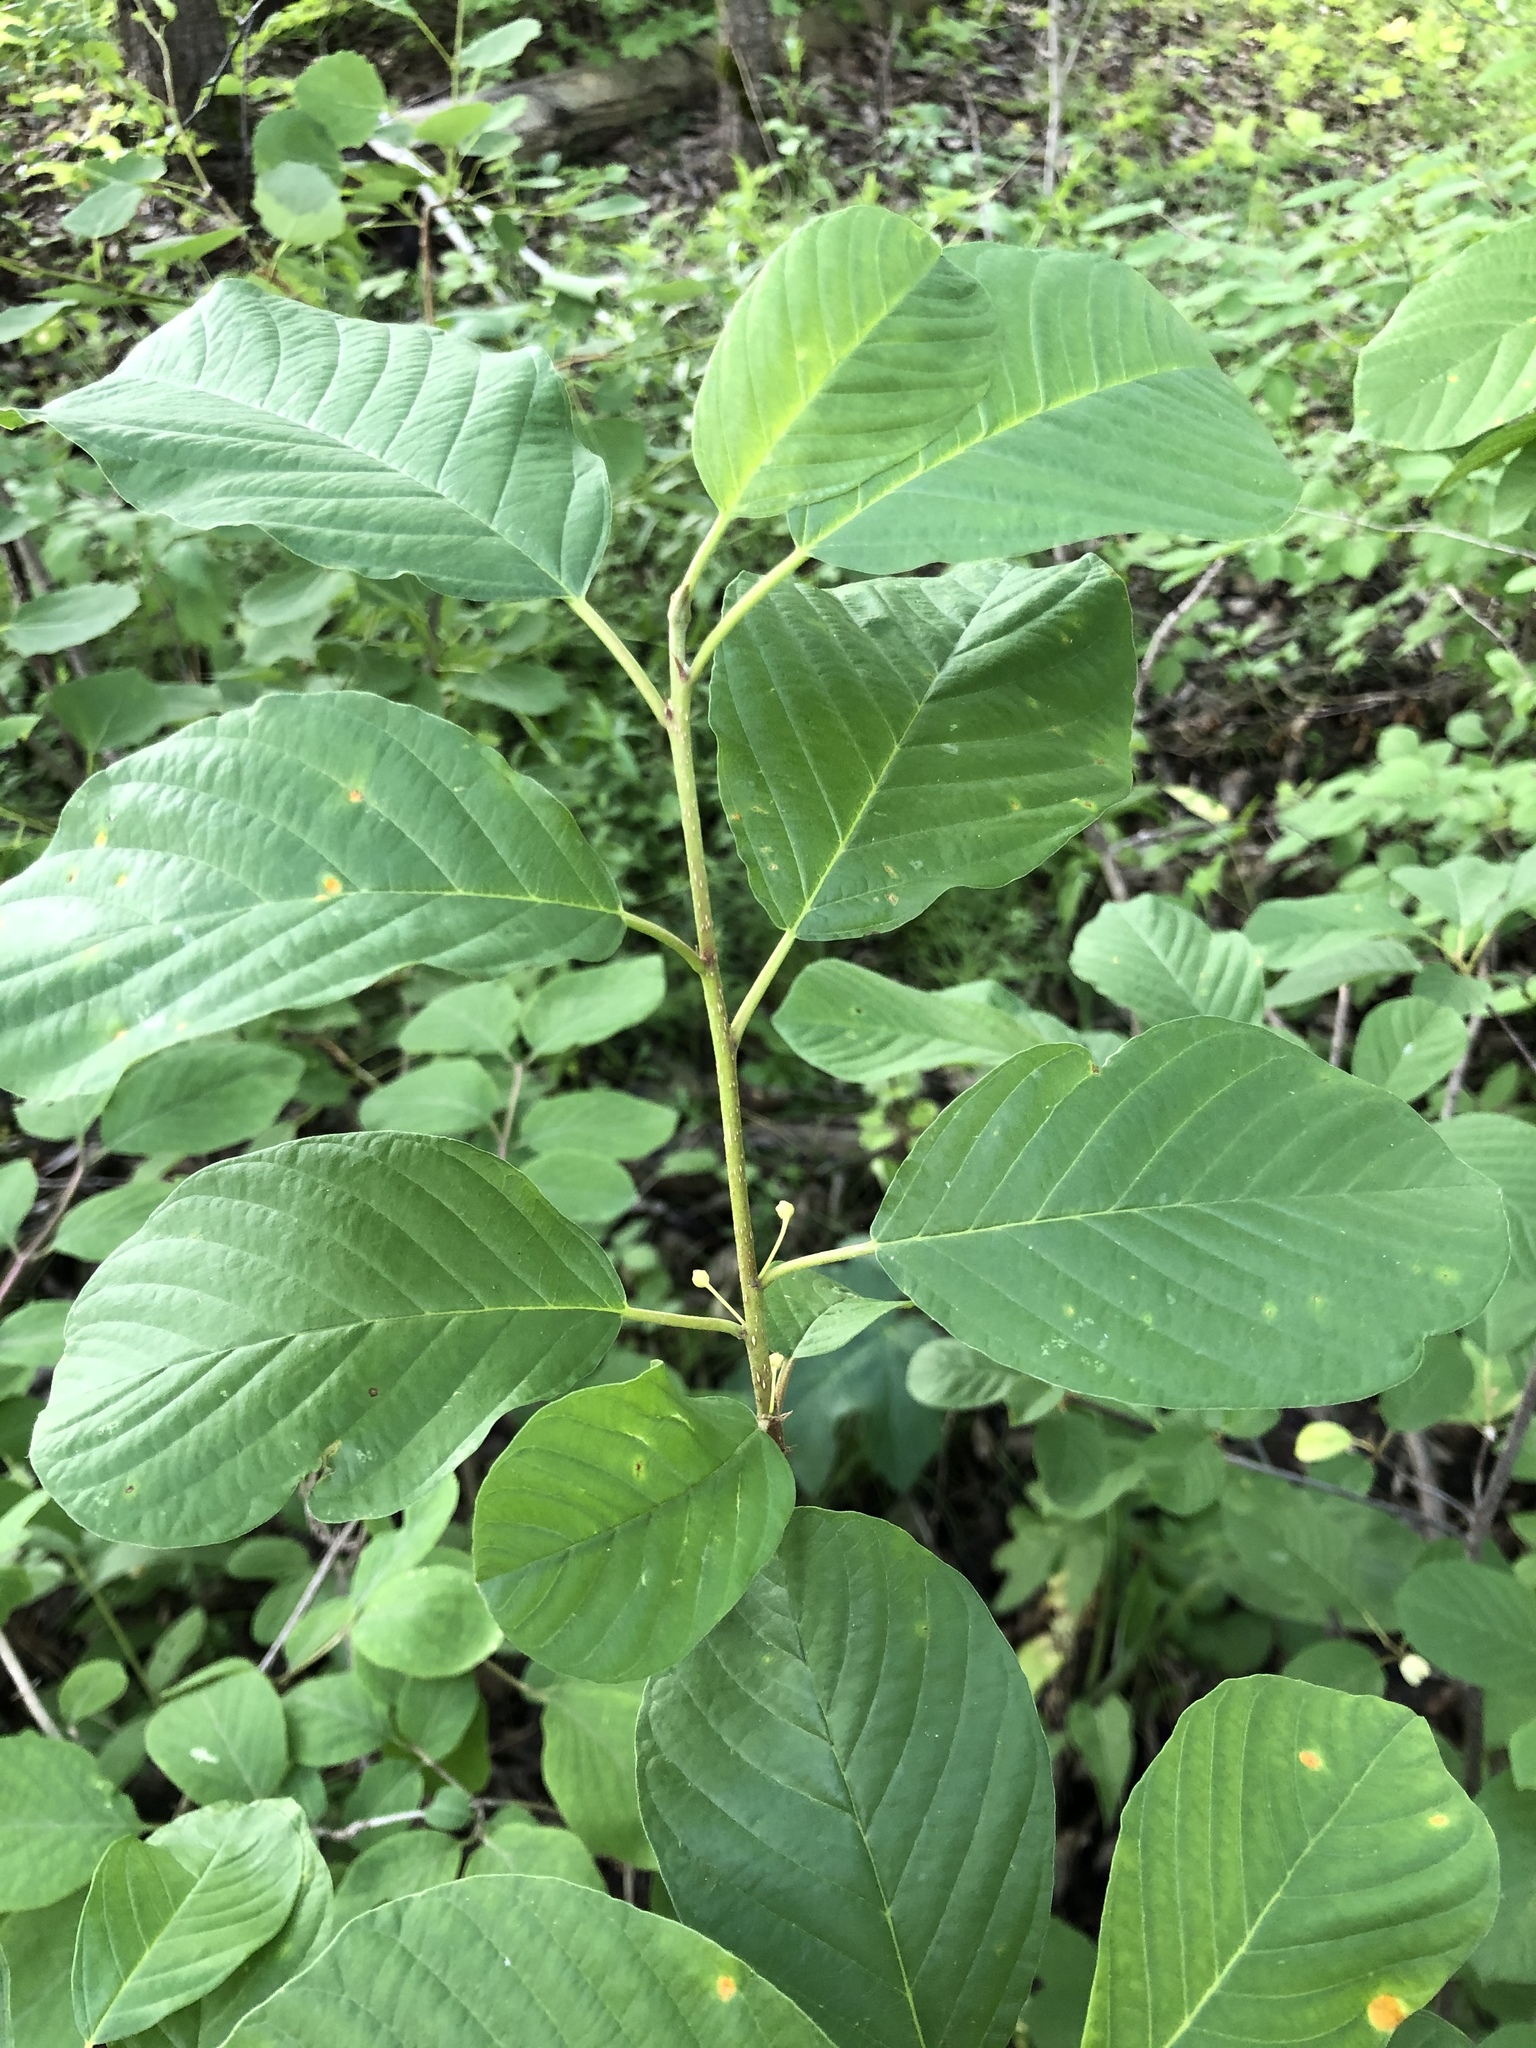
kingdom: Plantae
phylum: Tracheophyta
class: Magnoliopsida
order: Rosales
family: Rhamnaceae
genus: Frangula
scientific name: Frangula alnus
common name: Alder buckthorn
